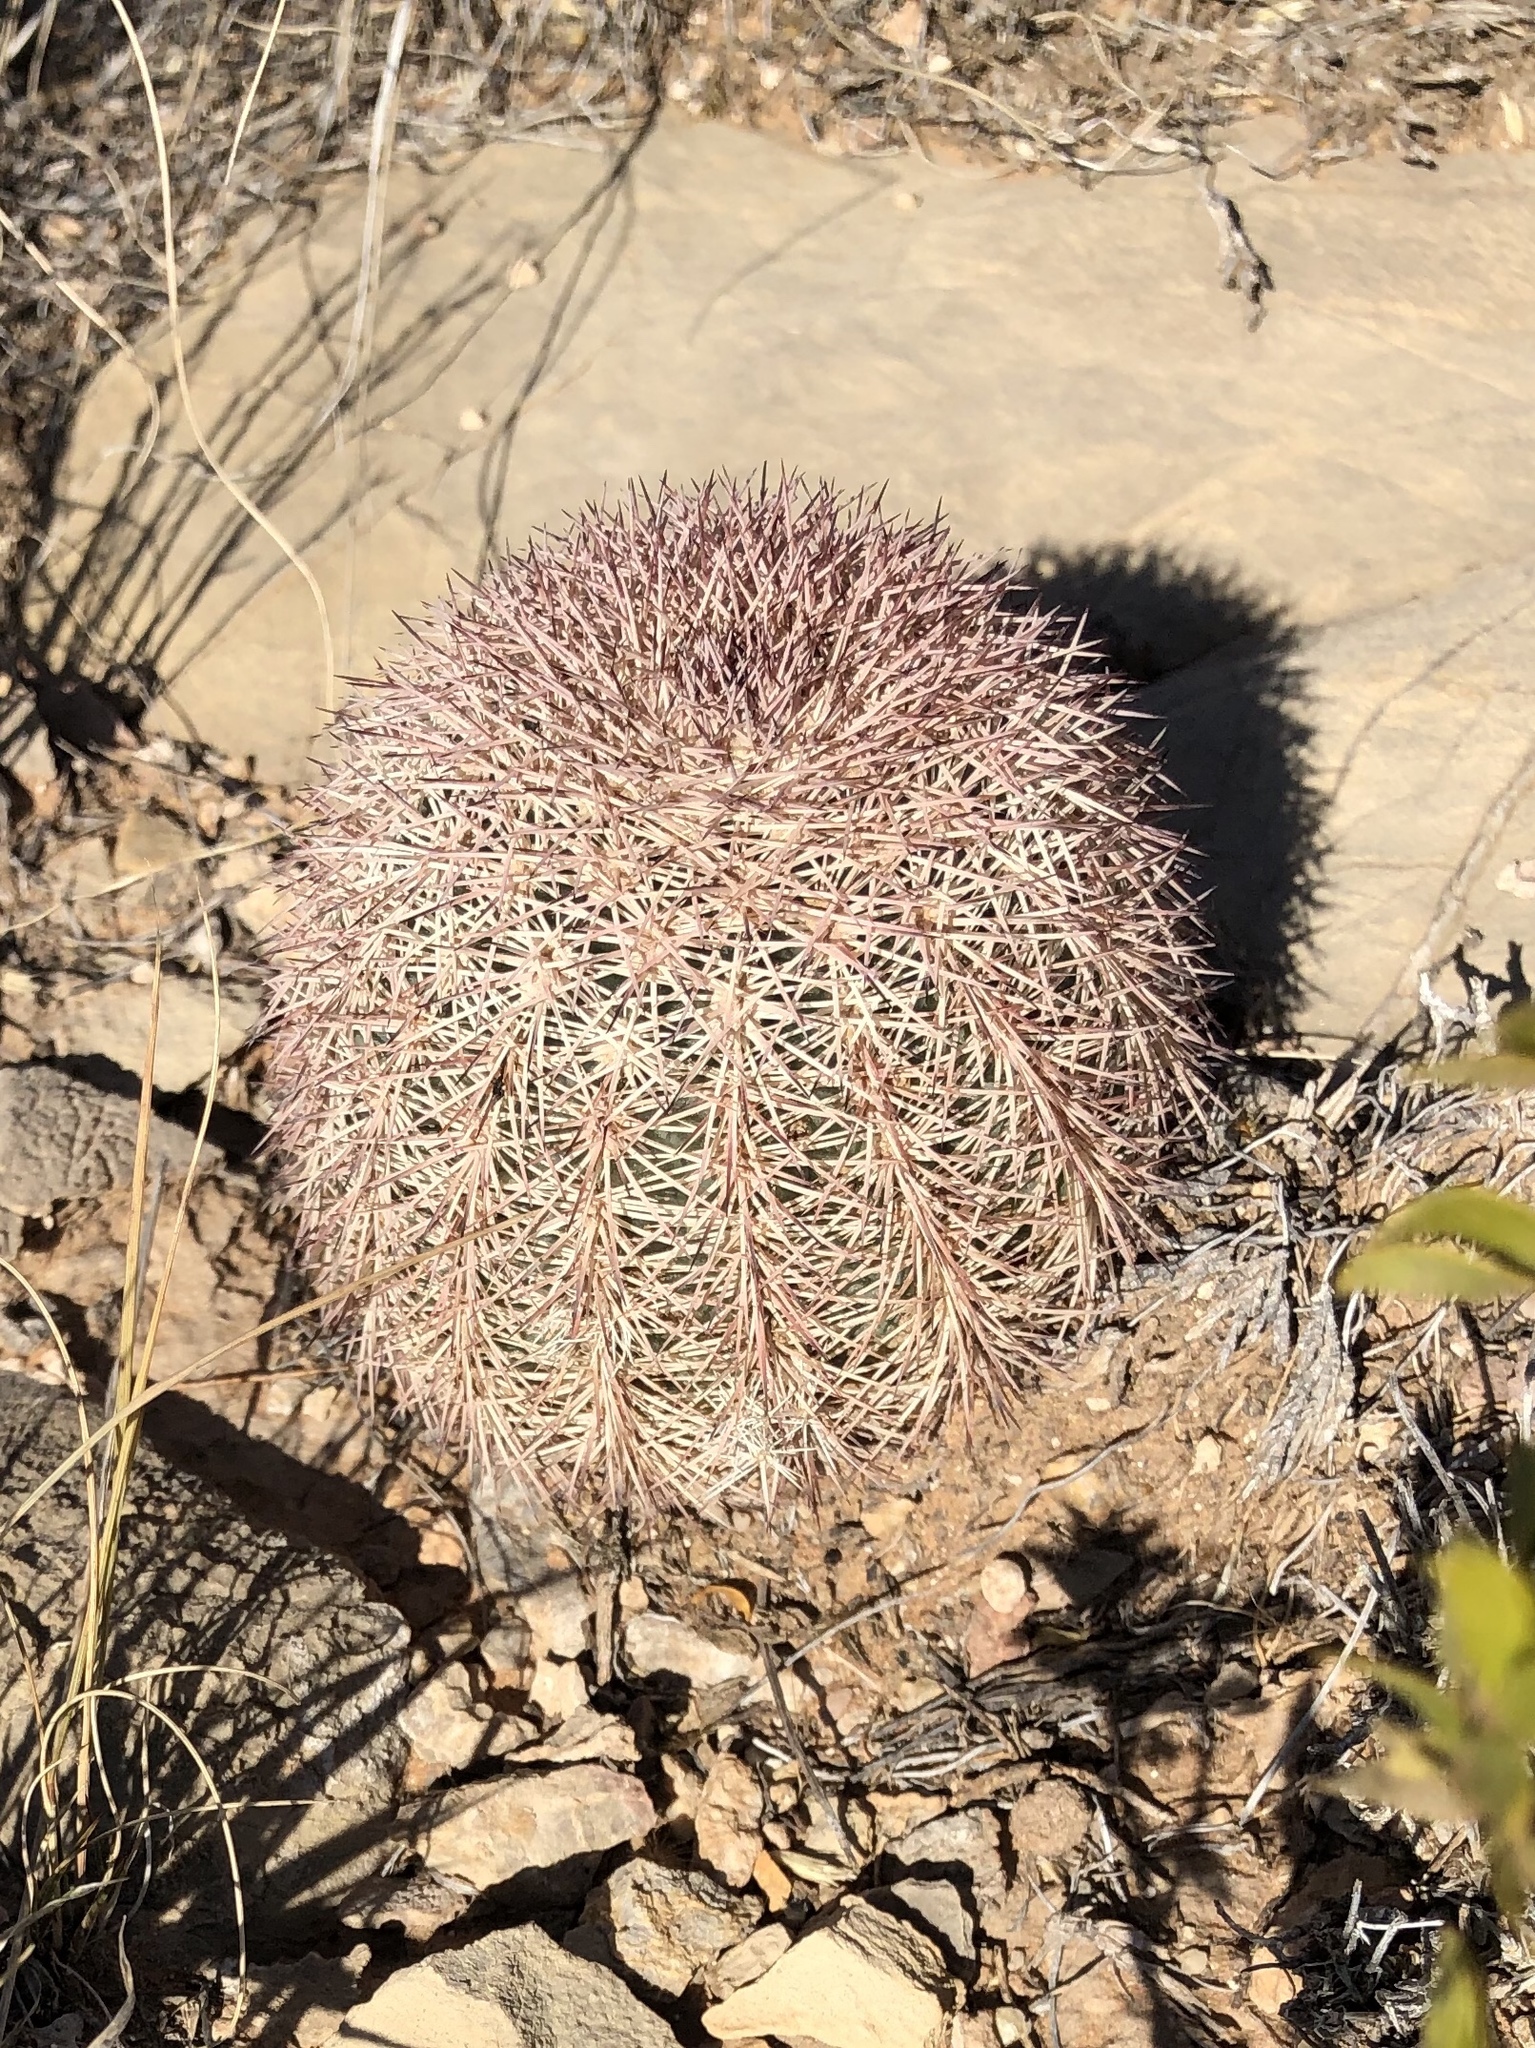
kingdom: Plantae
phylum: Tracheophyta
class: Magnoliopsida
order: Caryophyllales
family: Cactaceae
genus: Echinocereus
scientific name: Echinocereus dasyacanthus
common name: Spiny hedgehog cactus
